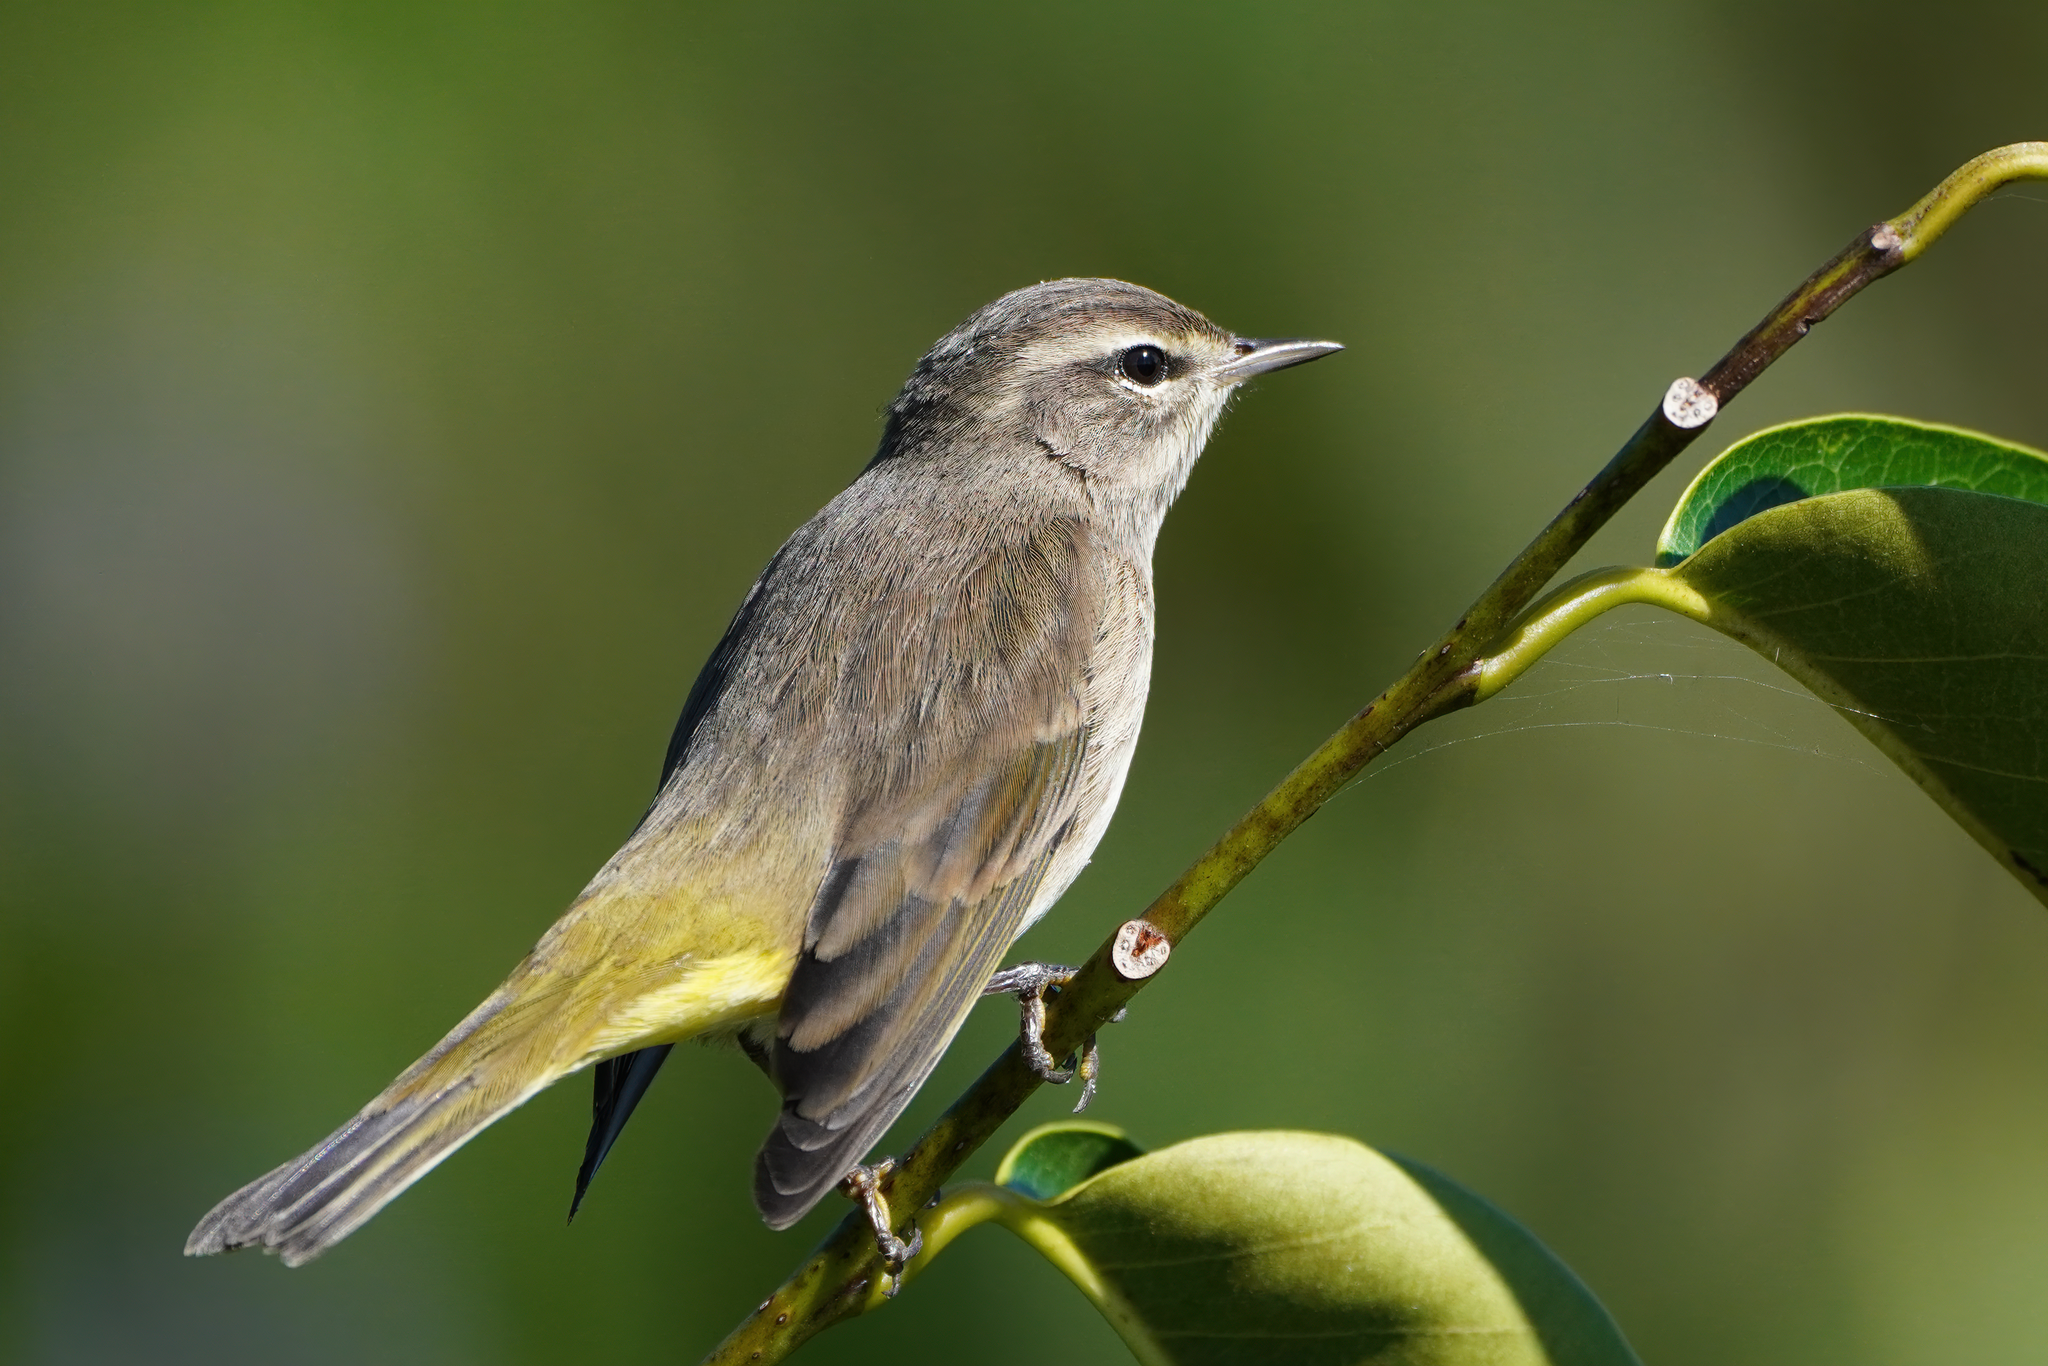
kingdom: Animalia
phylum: Chordata
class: Aves
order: Passeriformes
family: Parulidae
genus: Setophaga
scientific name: Setophaga palmarum
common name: Palm warbler
